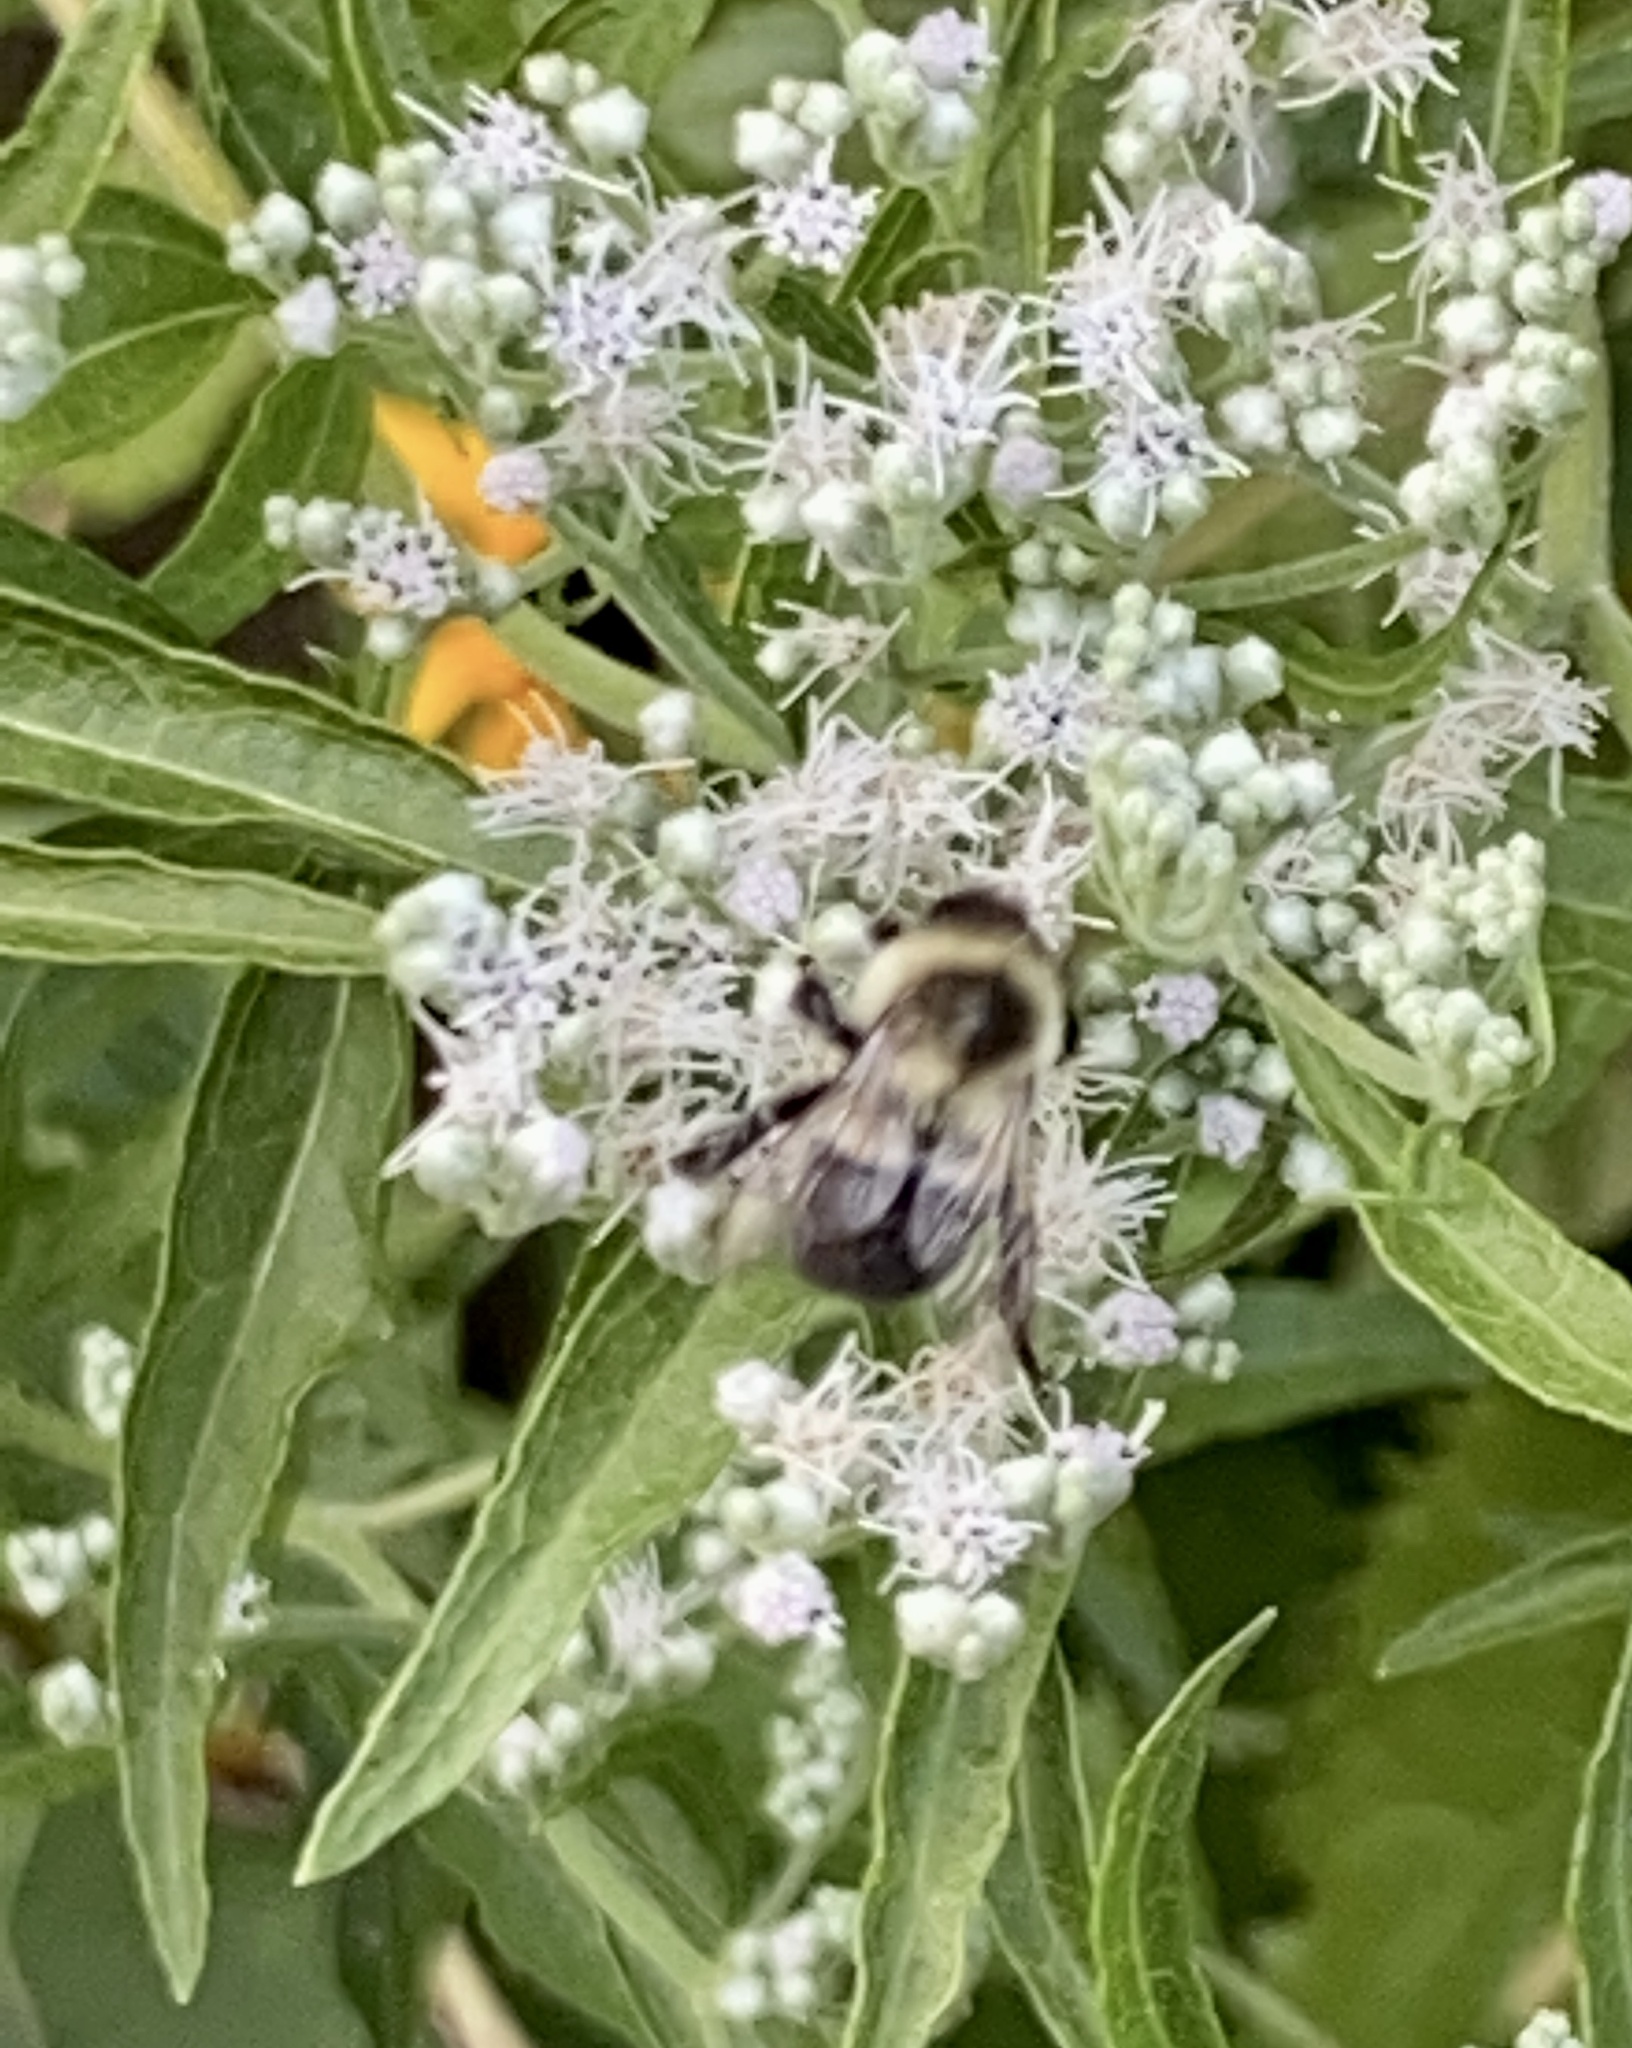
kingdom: Animalia
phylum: Arthropoda
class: Insecta
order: Hymenoptera
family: Apidae
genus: Bombus
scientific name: Bombus impatiens
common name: Common eastern bumble bee
